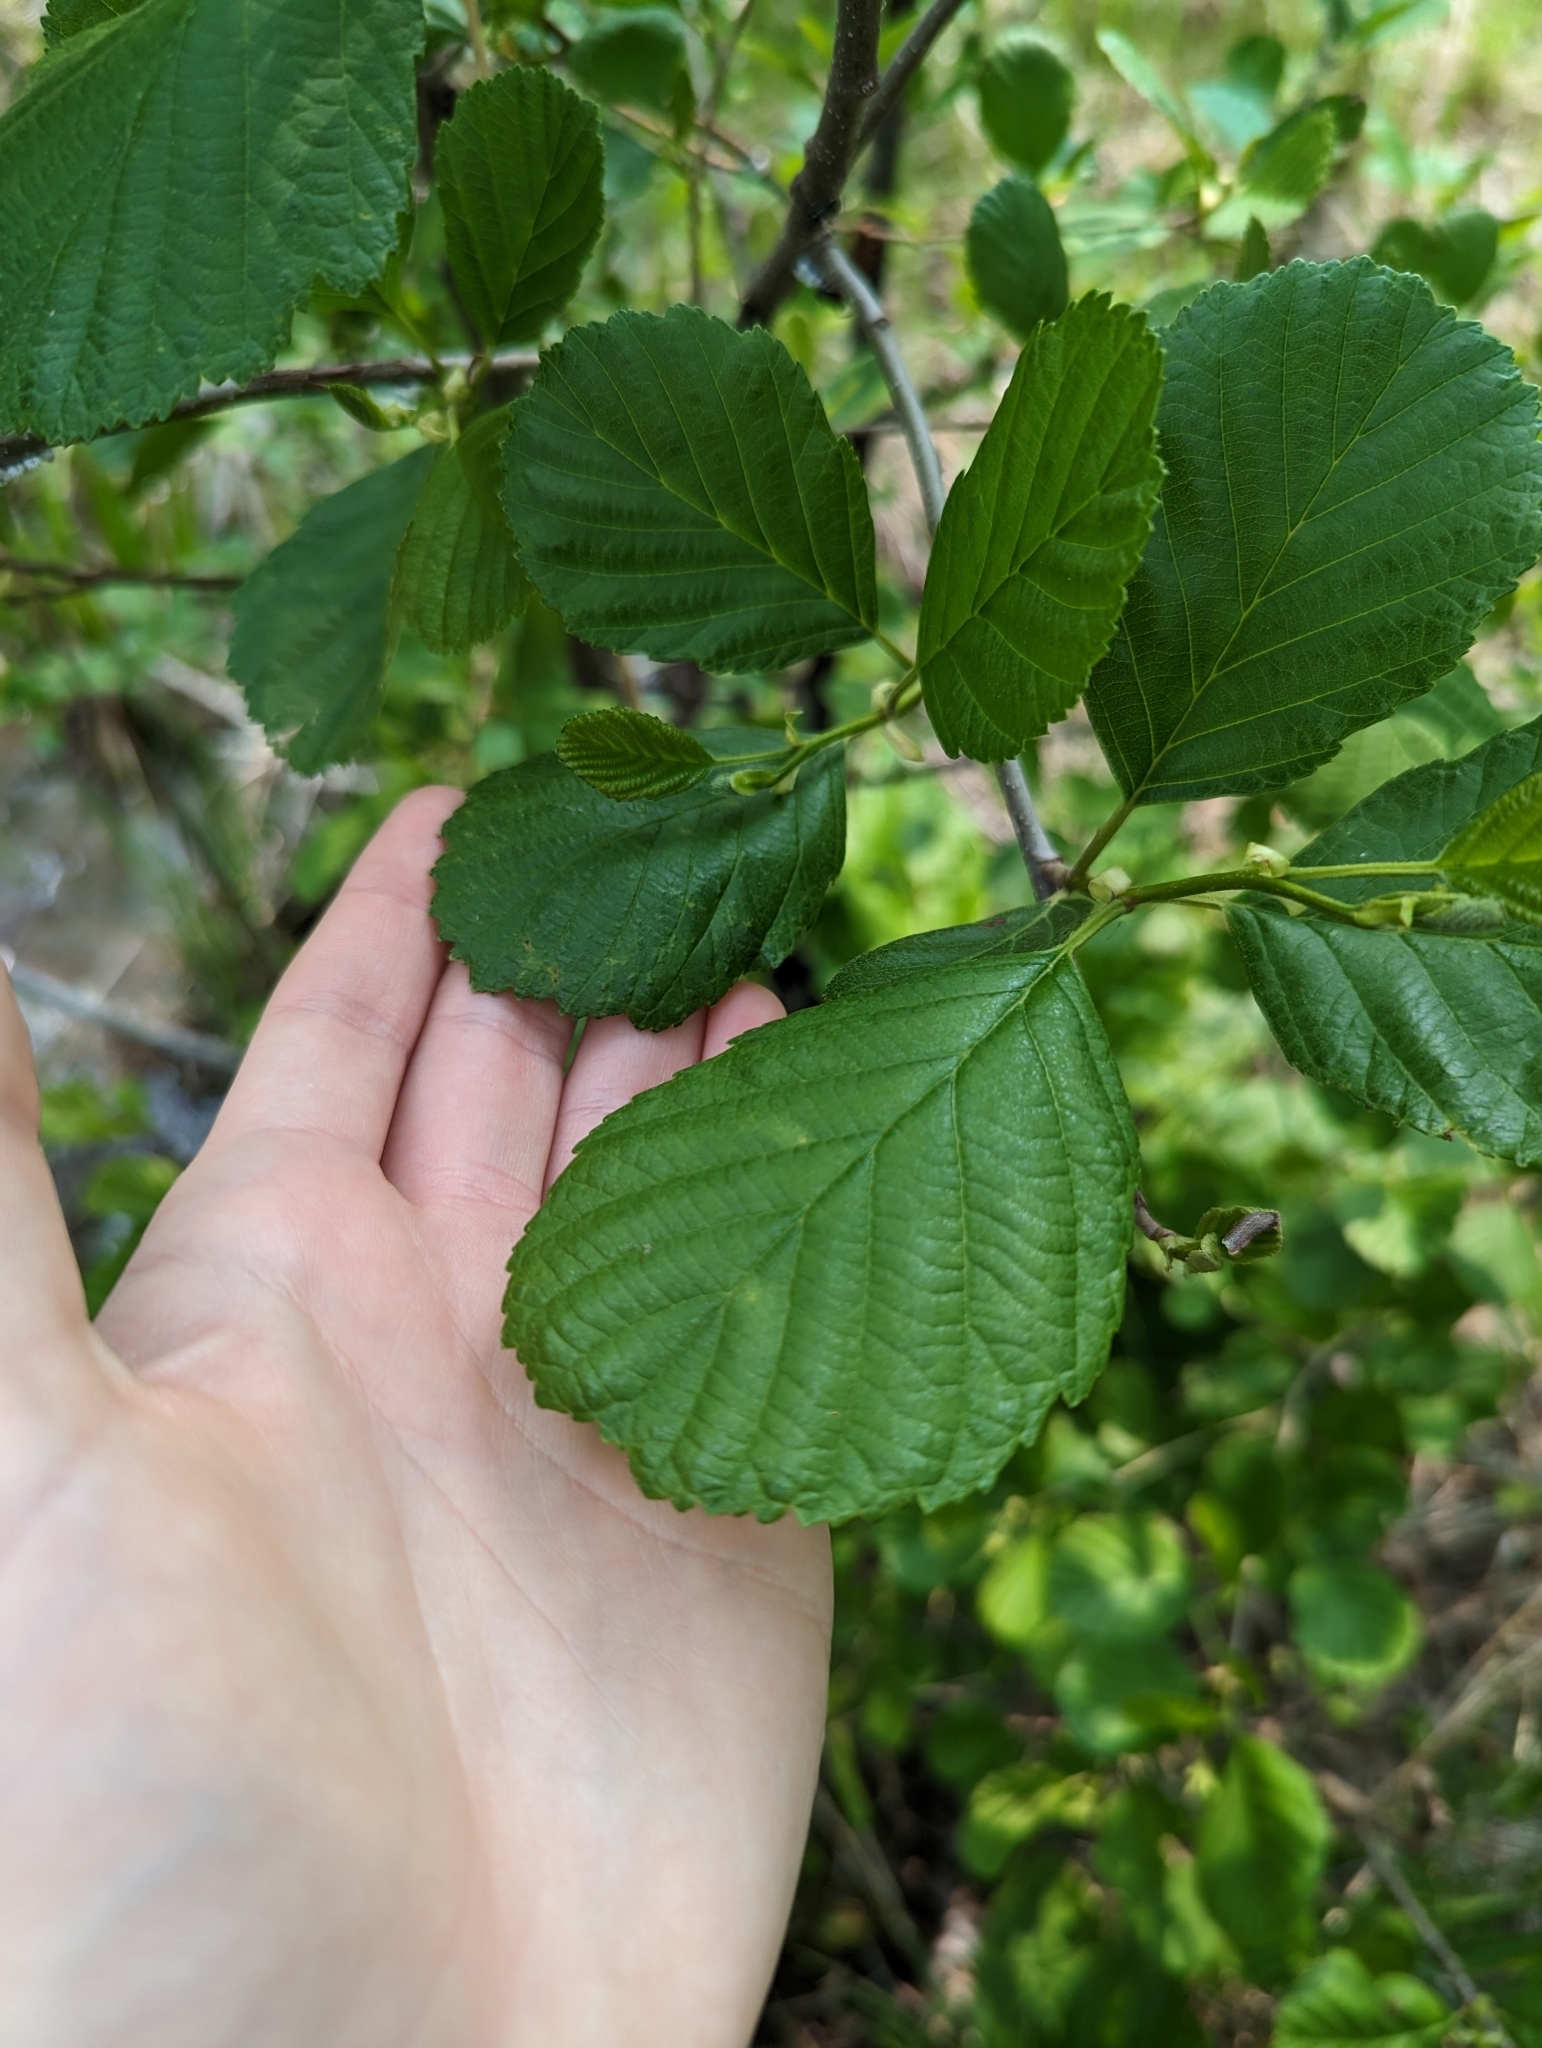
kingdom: Plantae
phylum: Tracheophyta
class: Magnoliopsida
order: Fagales
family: Betulaceae
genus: Alnus
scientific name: Alnus glutinosa
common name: Black alder
